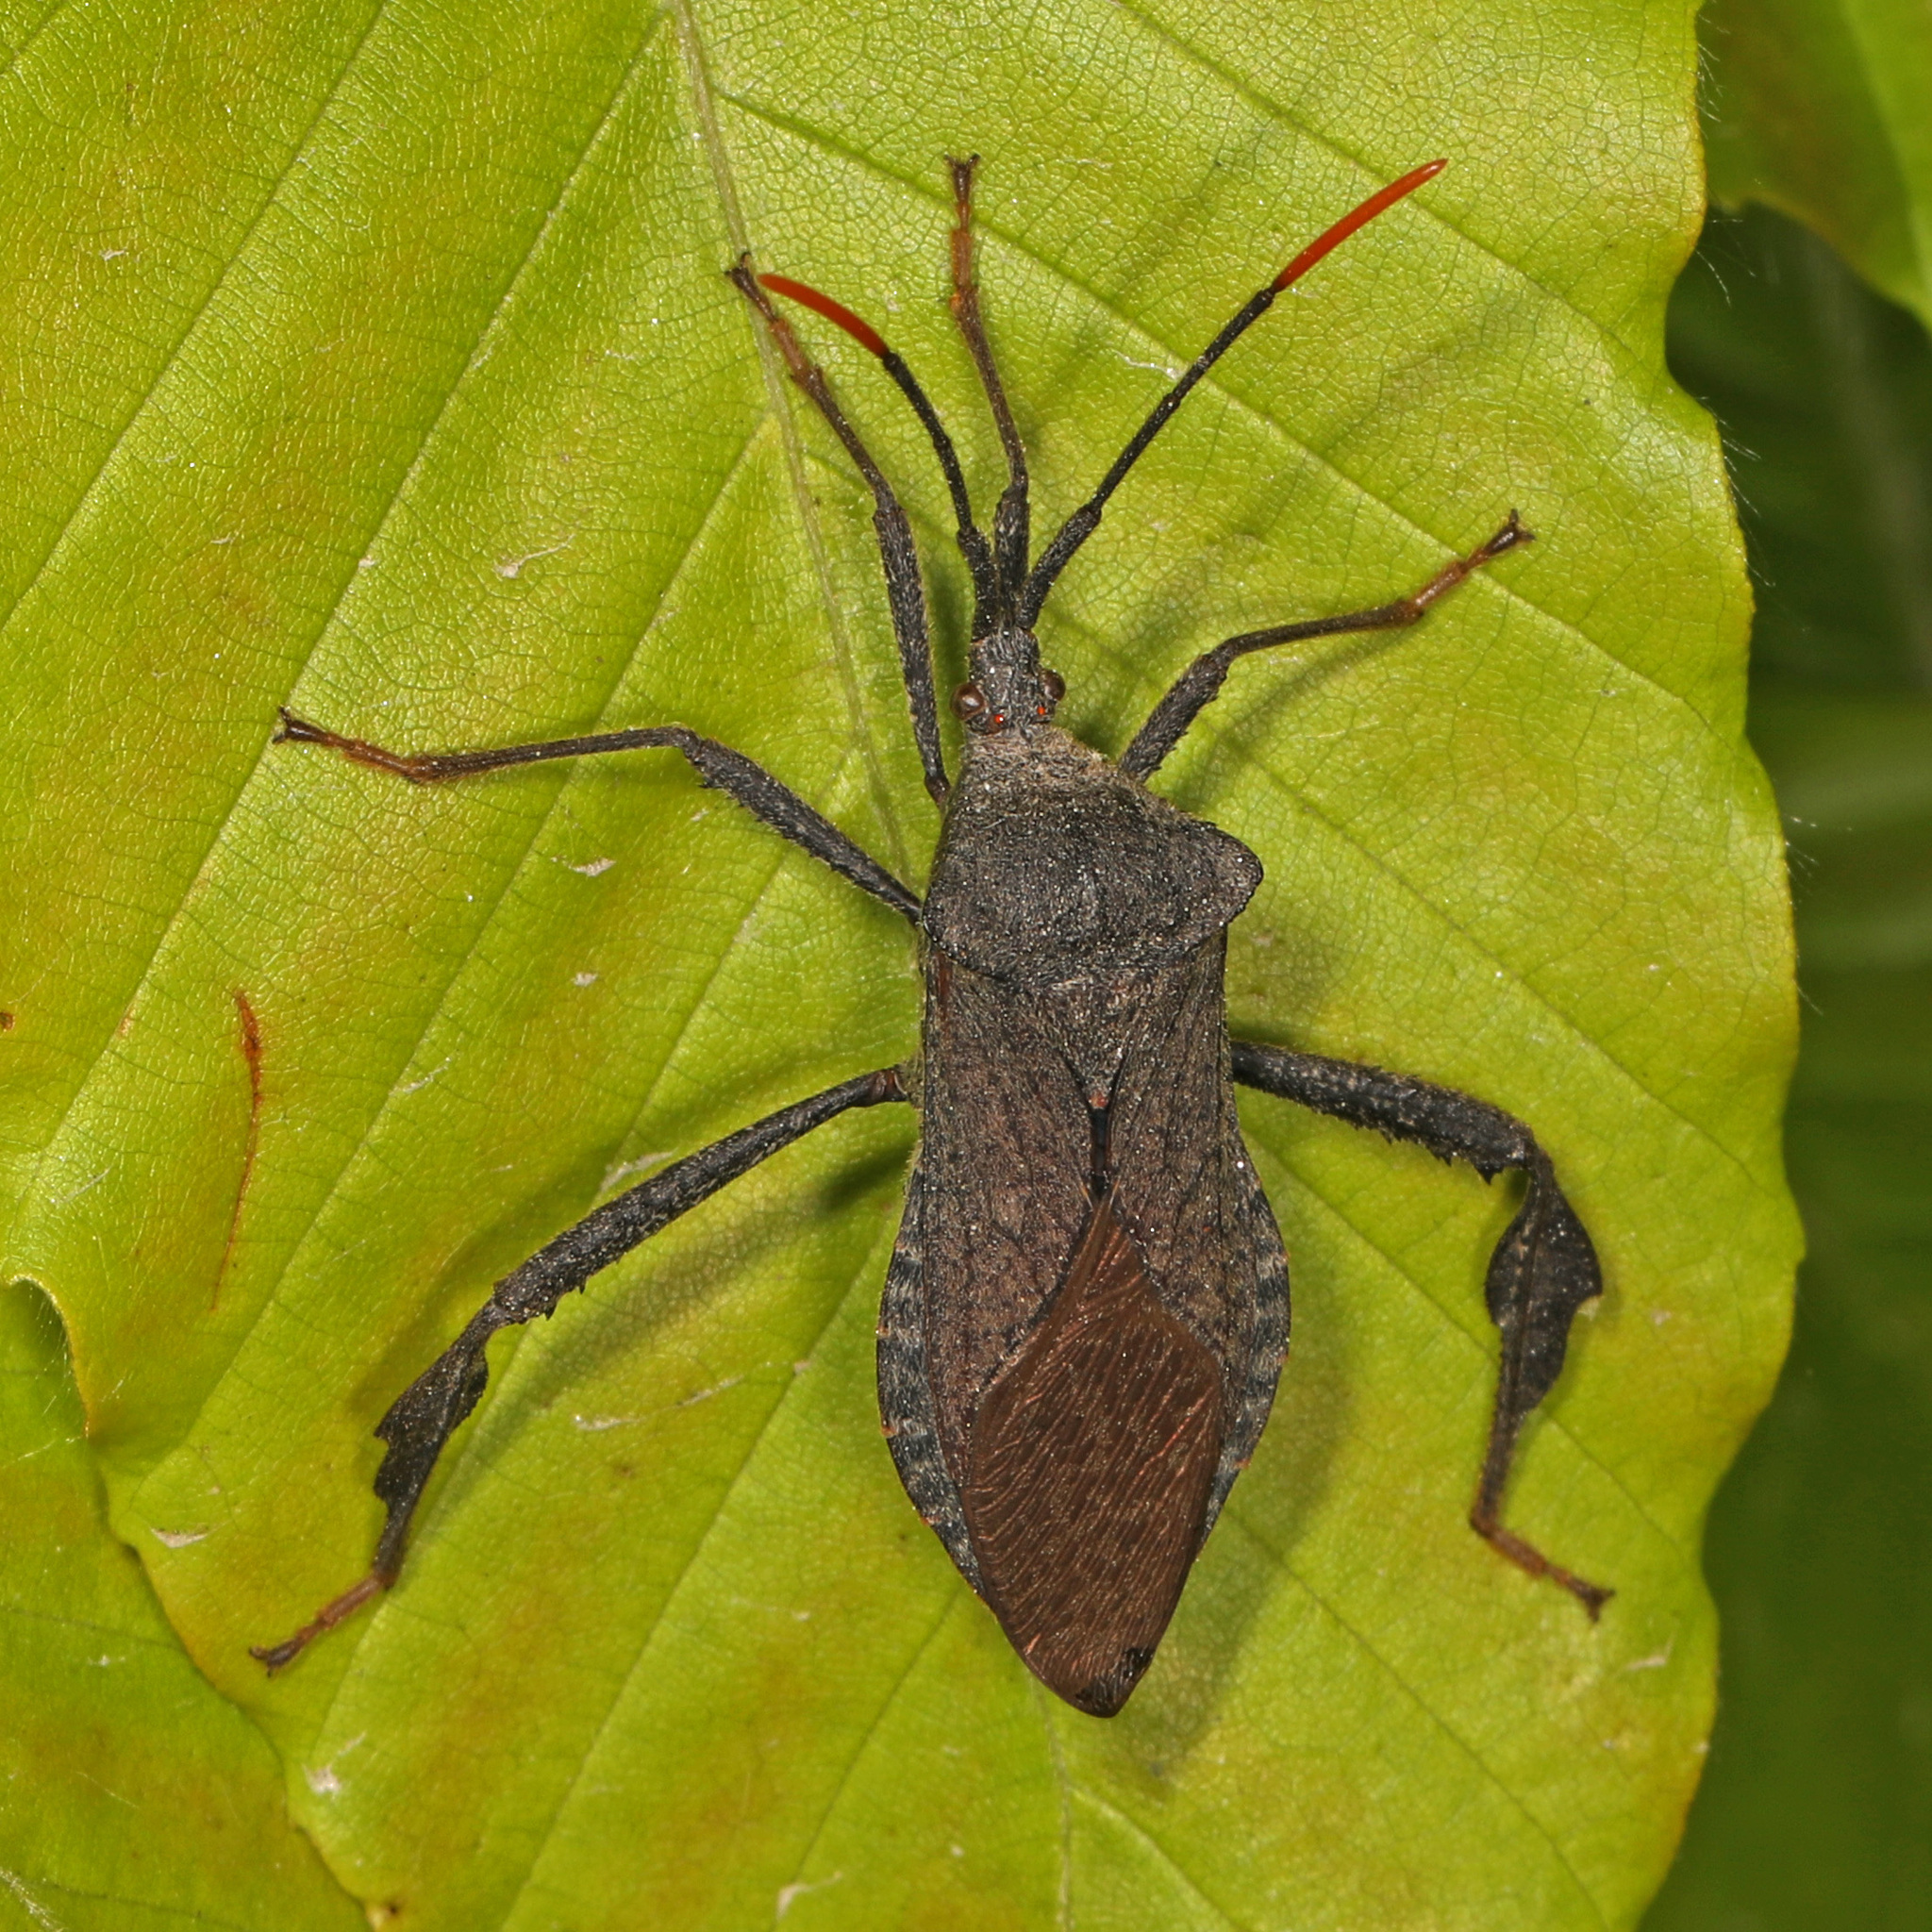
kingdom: Animalia
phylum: Arthropoda
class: Insecta
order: Hemiptera
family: Coreidae
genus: Acanthocephala
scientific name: Acanthocephala terminalis
